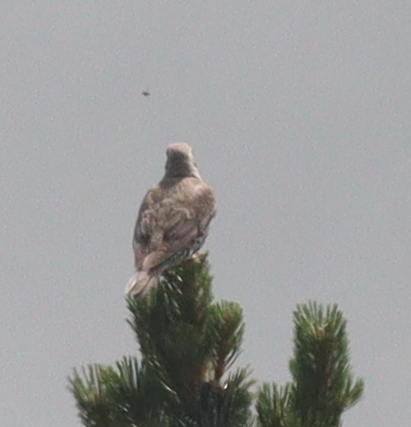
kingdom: Animalia
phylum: Chordata
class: Aves
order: Passeriformes
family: Turdidae
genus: Turdus
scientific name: Turdus viscivorus
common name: Mistle thrush
